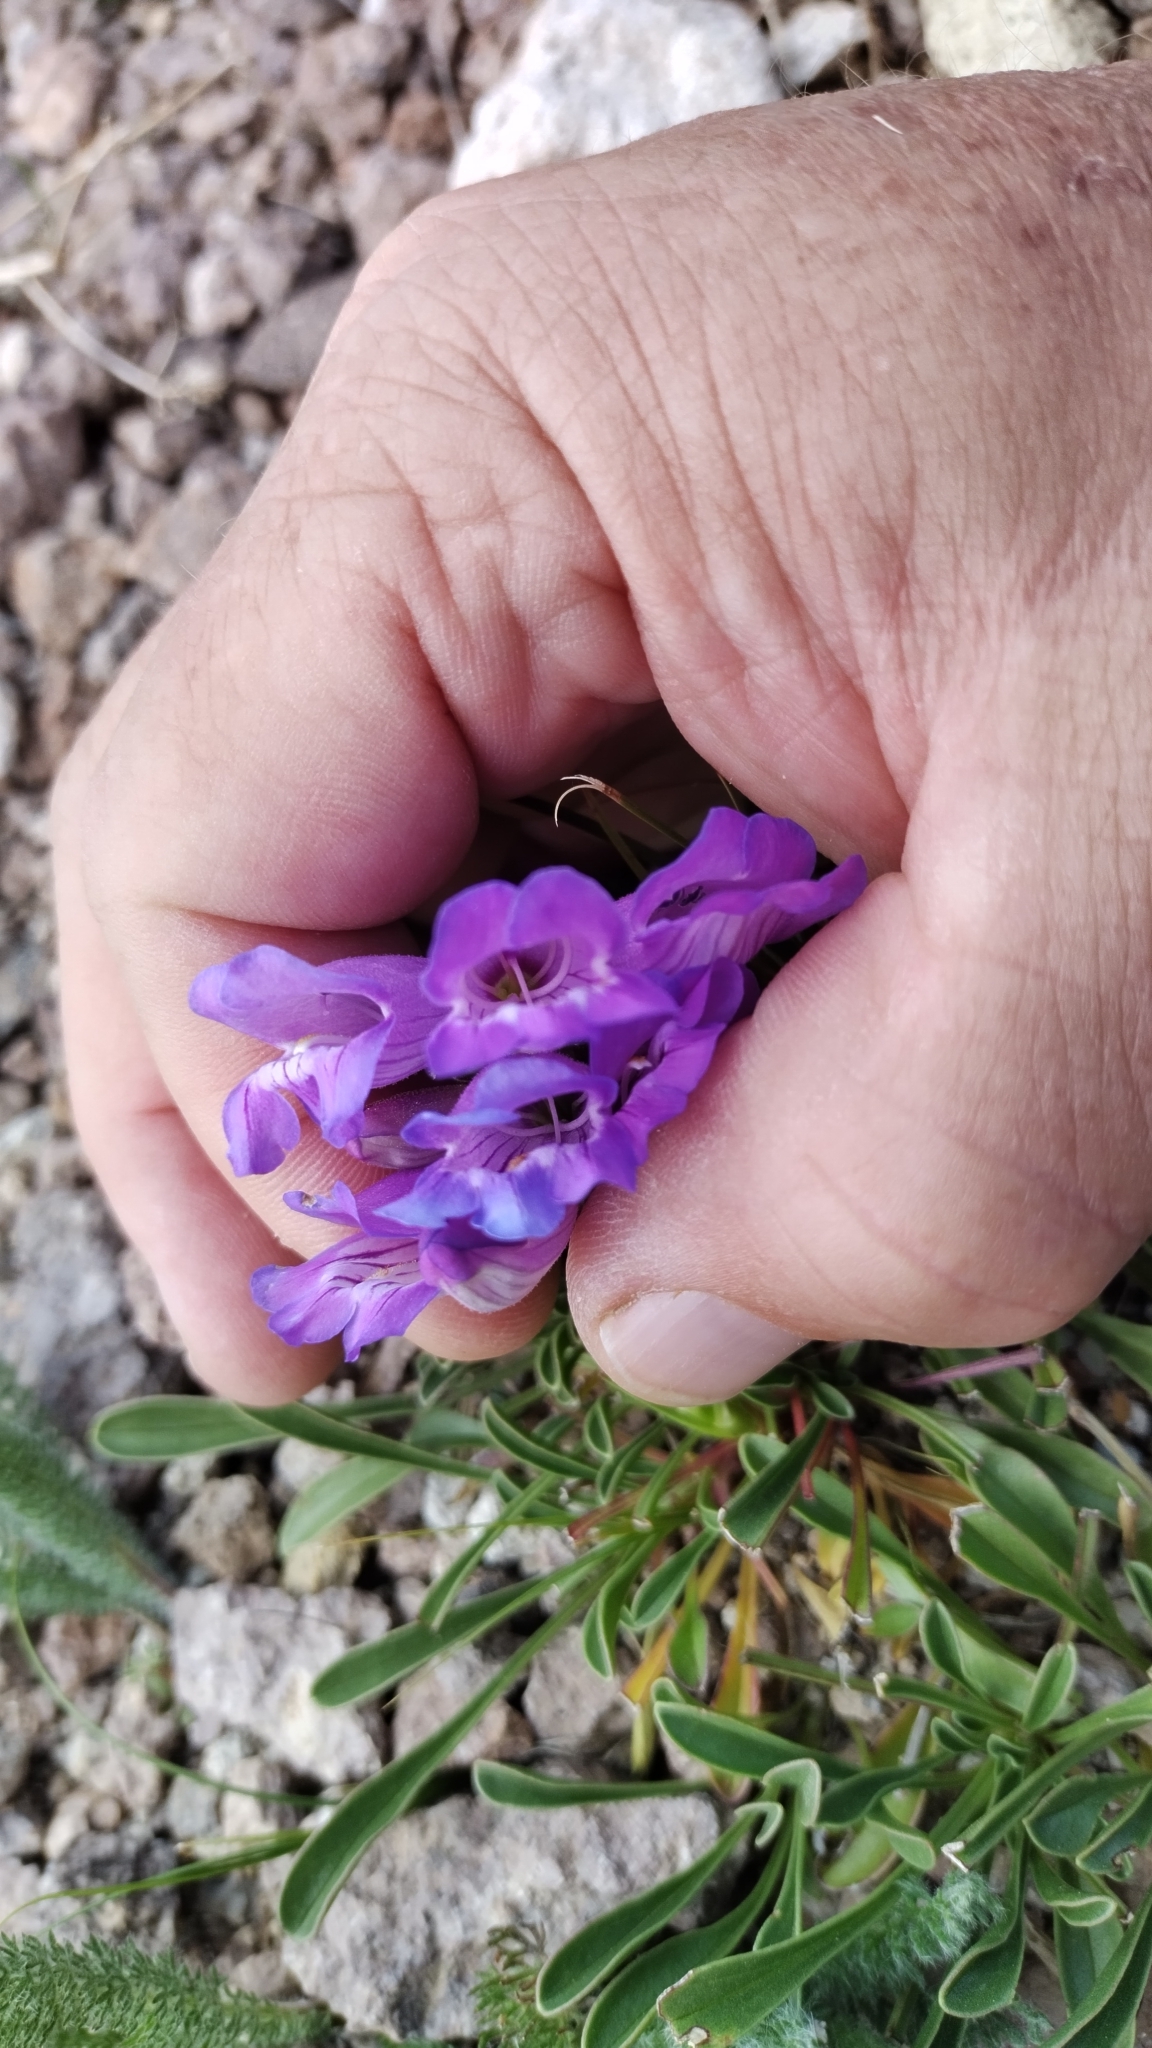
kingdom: Plantae
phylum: Tracheophyta
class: Magnoliopsida
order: Lamiales
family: Plantaginaceae
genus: Penstemon
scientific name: Penstemon hallii
